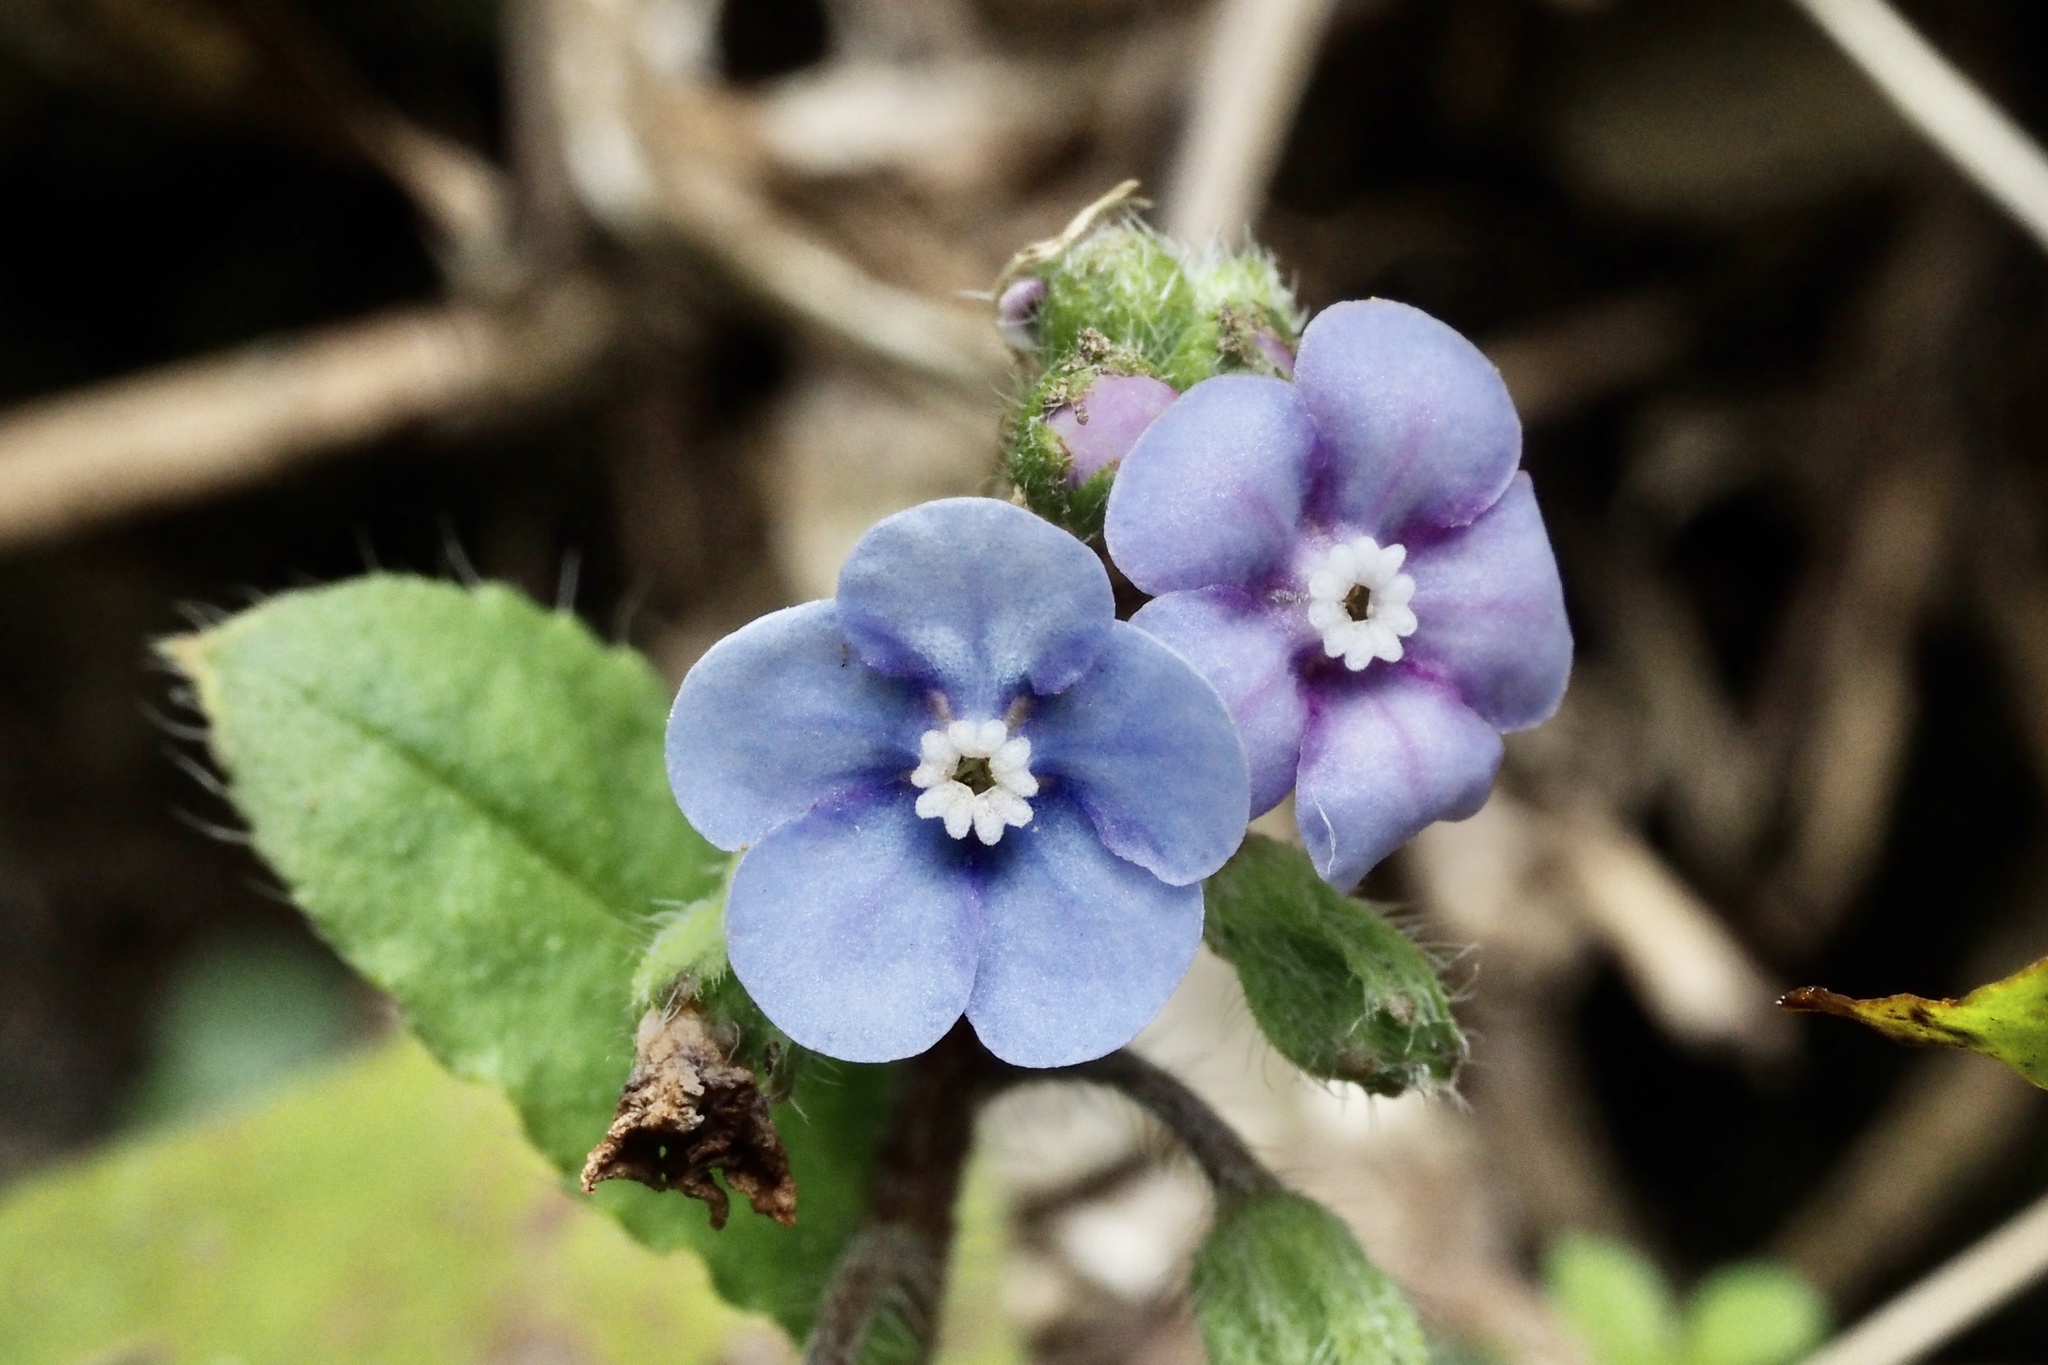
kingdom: Plantae
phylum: Tracheophyta
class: Magnoliopsida
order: Boraginales
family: Boraginaceae
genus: Nihon
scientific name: Nihon japonicum
